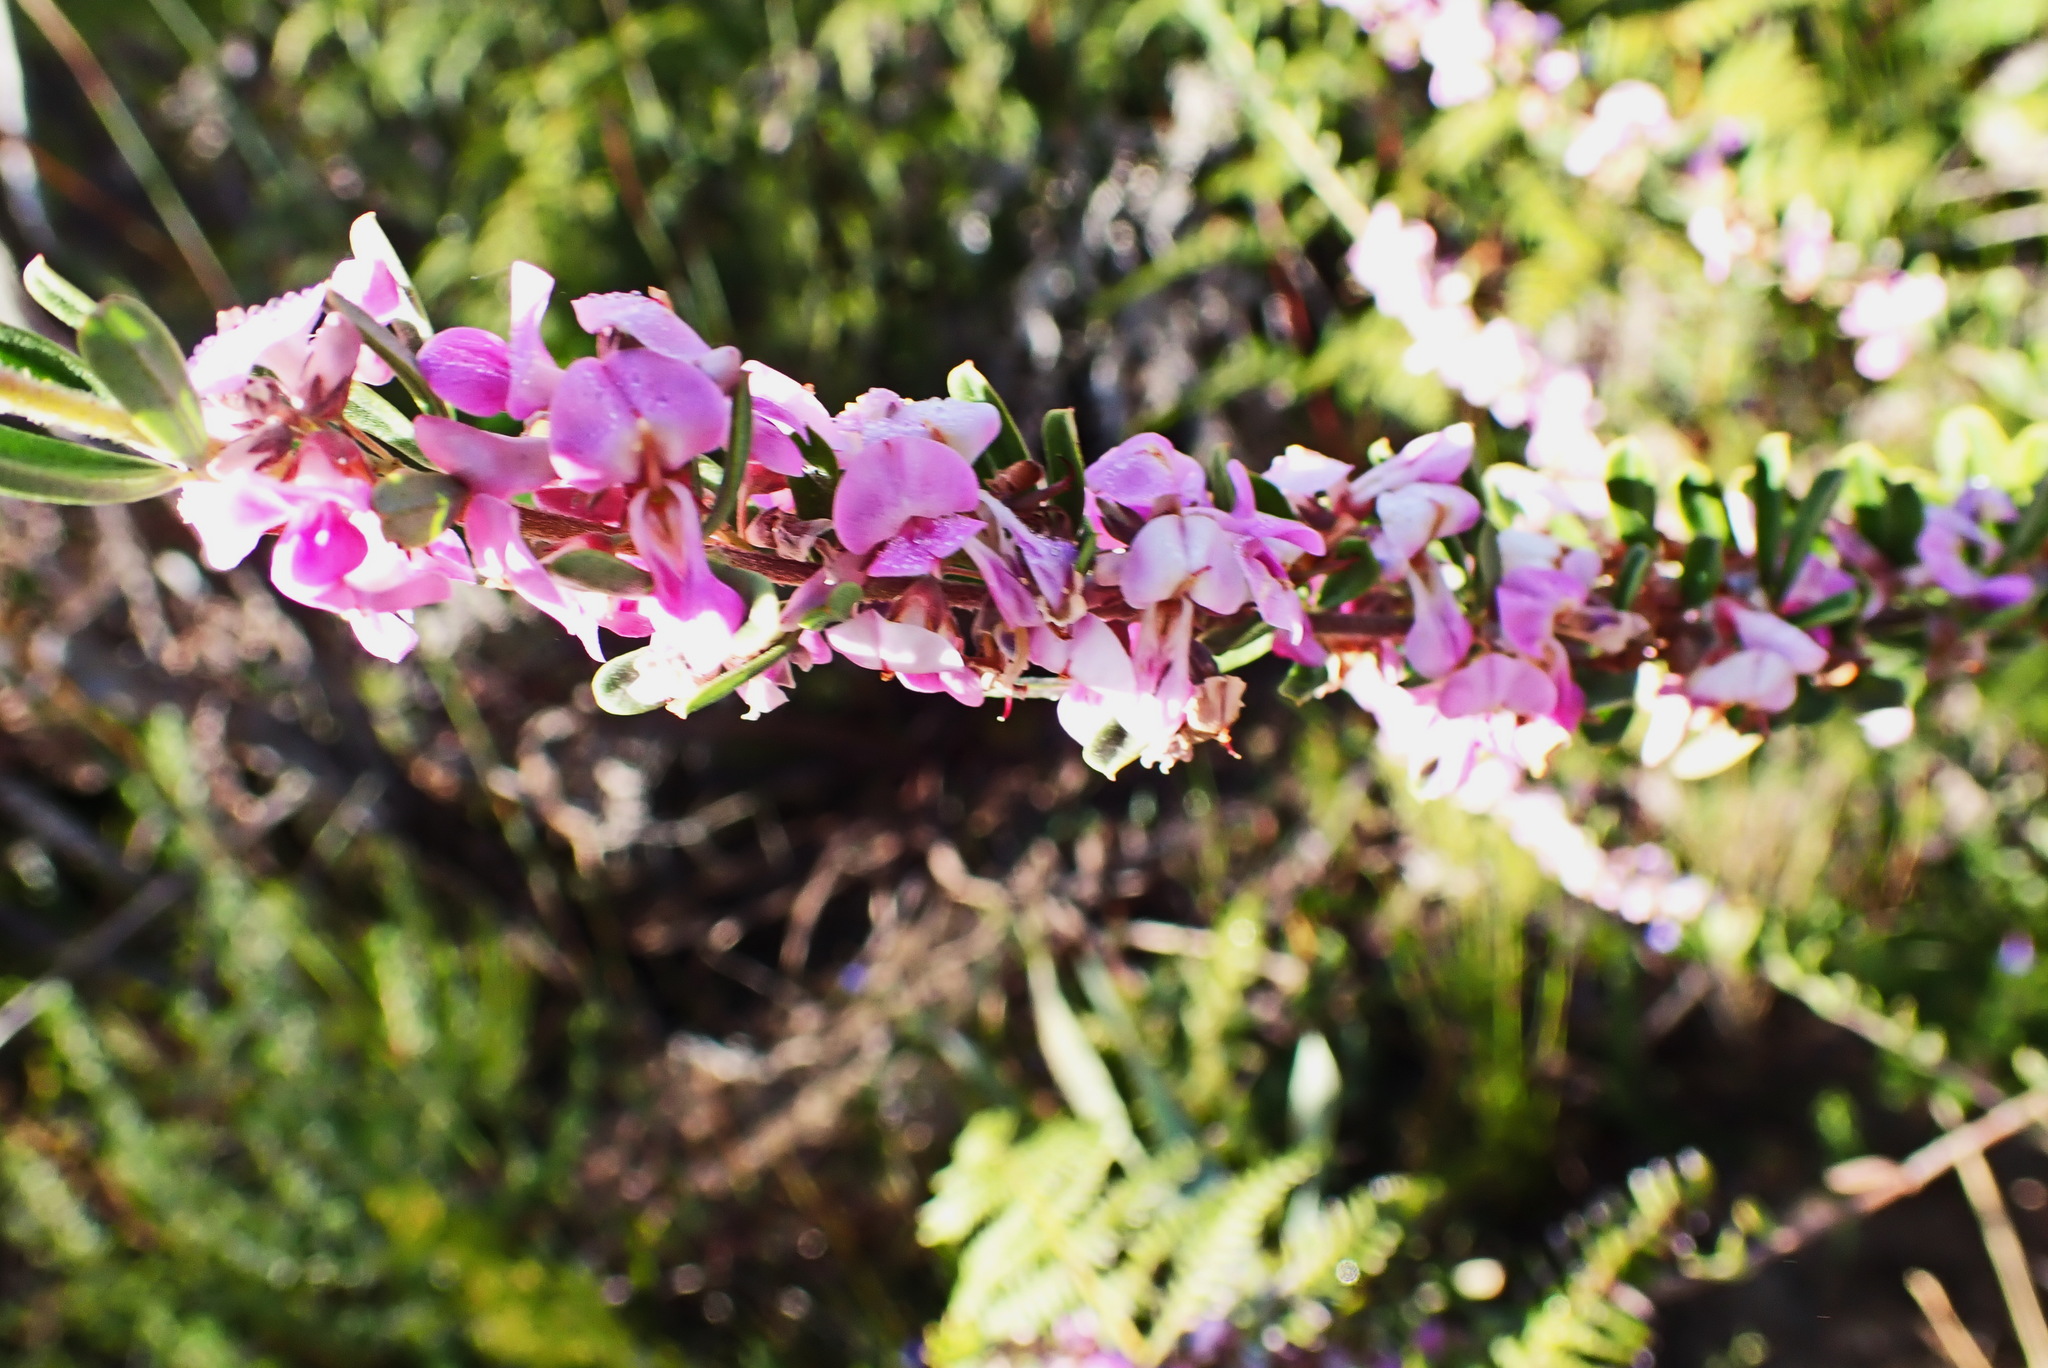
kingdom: Plantae
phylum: Tracheophyta
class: Magnoliopsida
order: Fabales
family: Fabaceae
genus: Indigofera
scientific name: Indigofera flabellata
